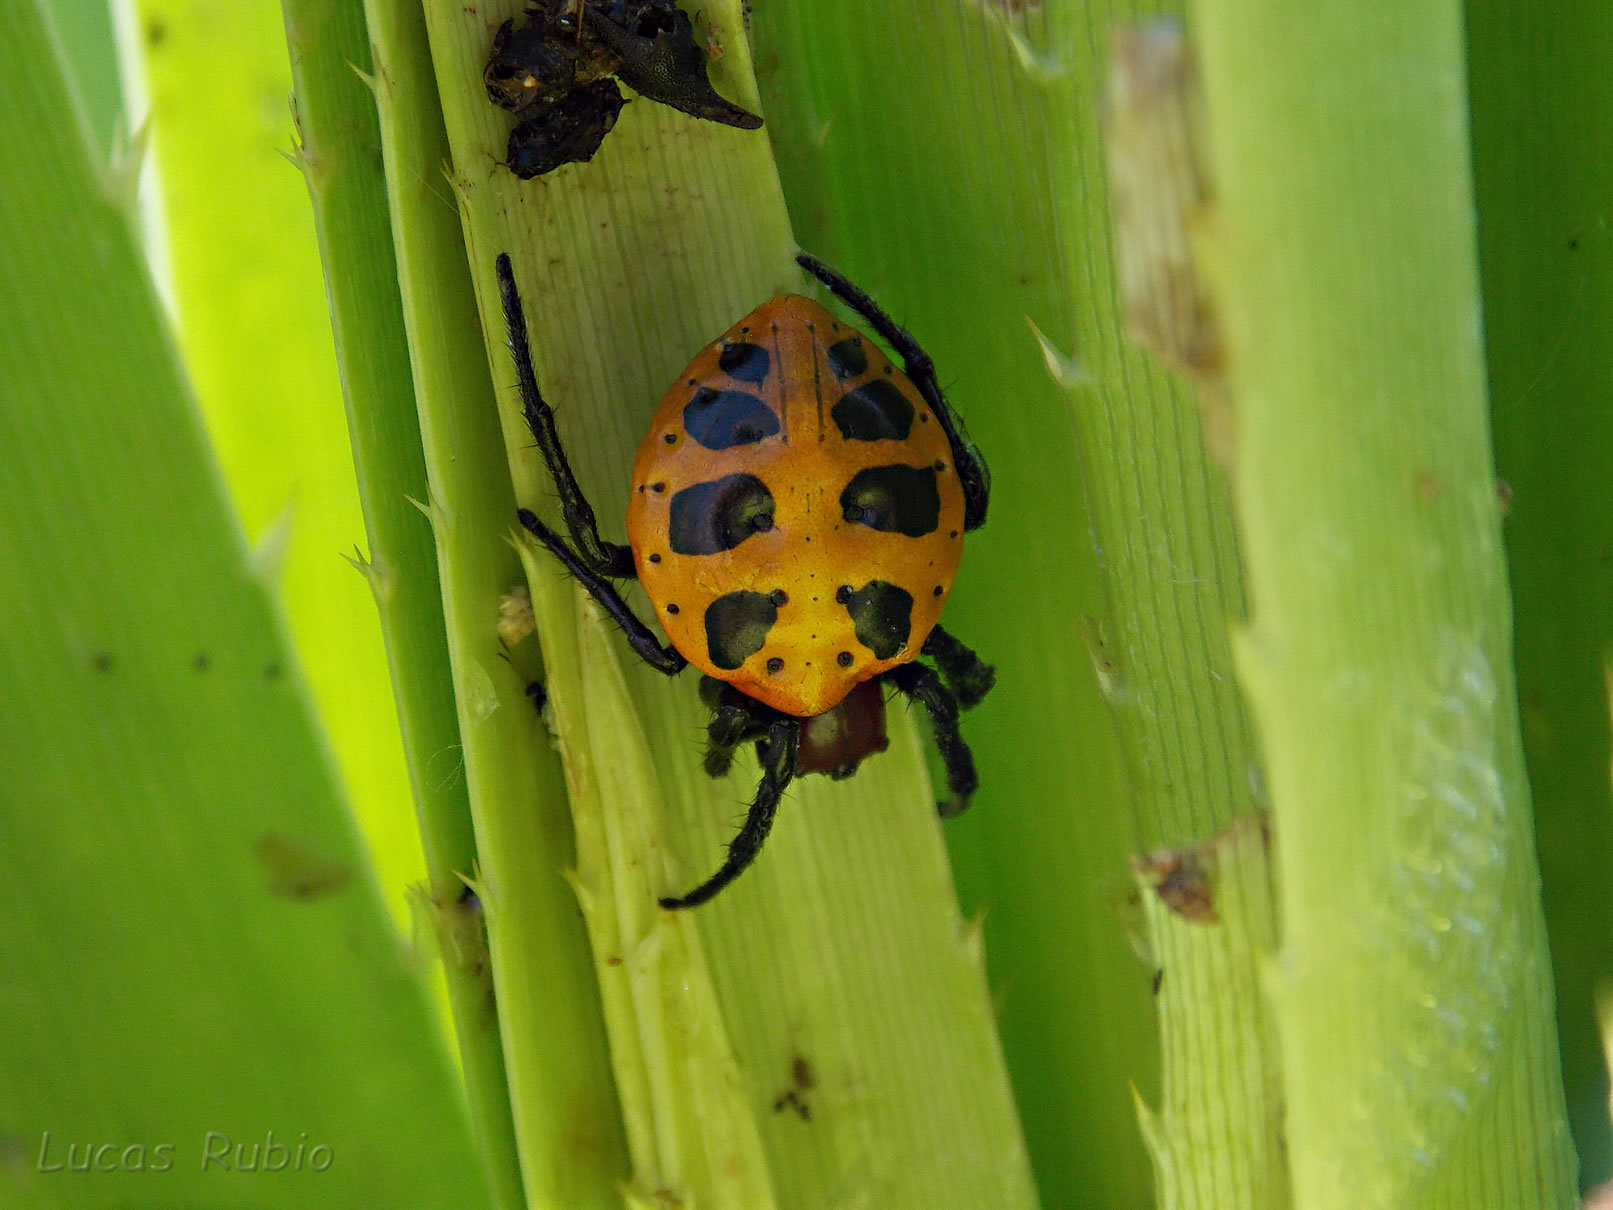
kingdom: Animalia
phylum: Arthropoda
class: Arachnida
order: Araneae
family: Araneidae
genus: Alpaida
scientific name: Alpaida quadrilorata
